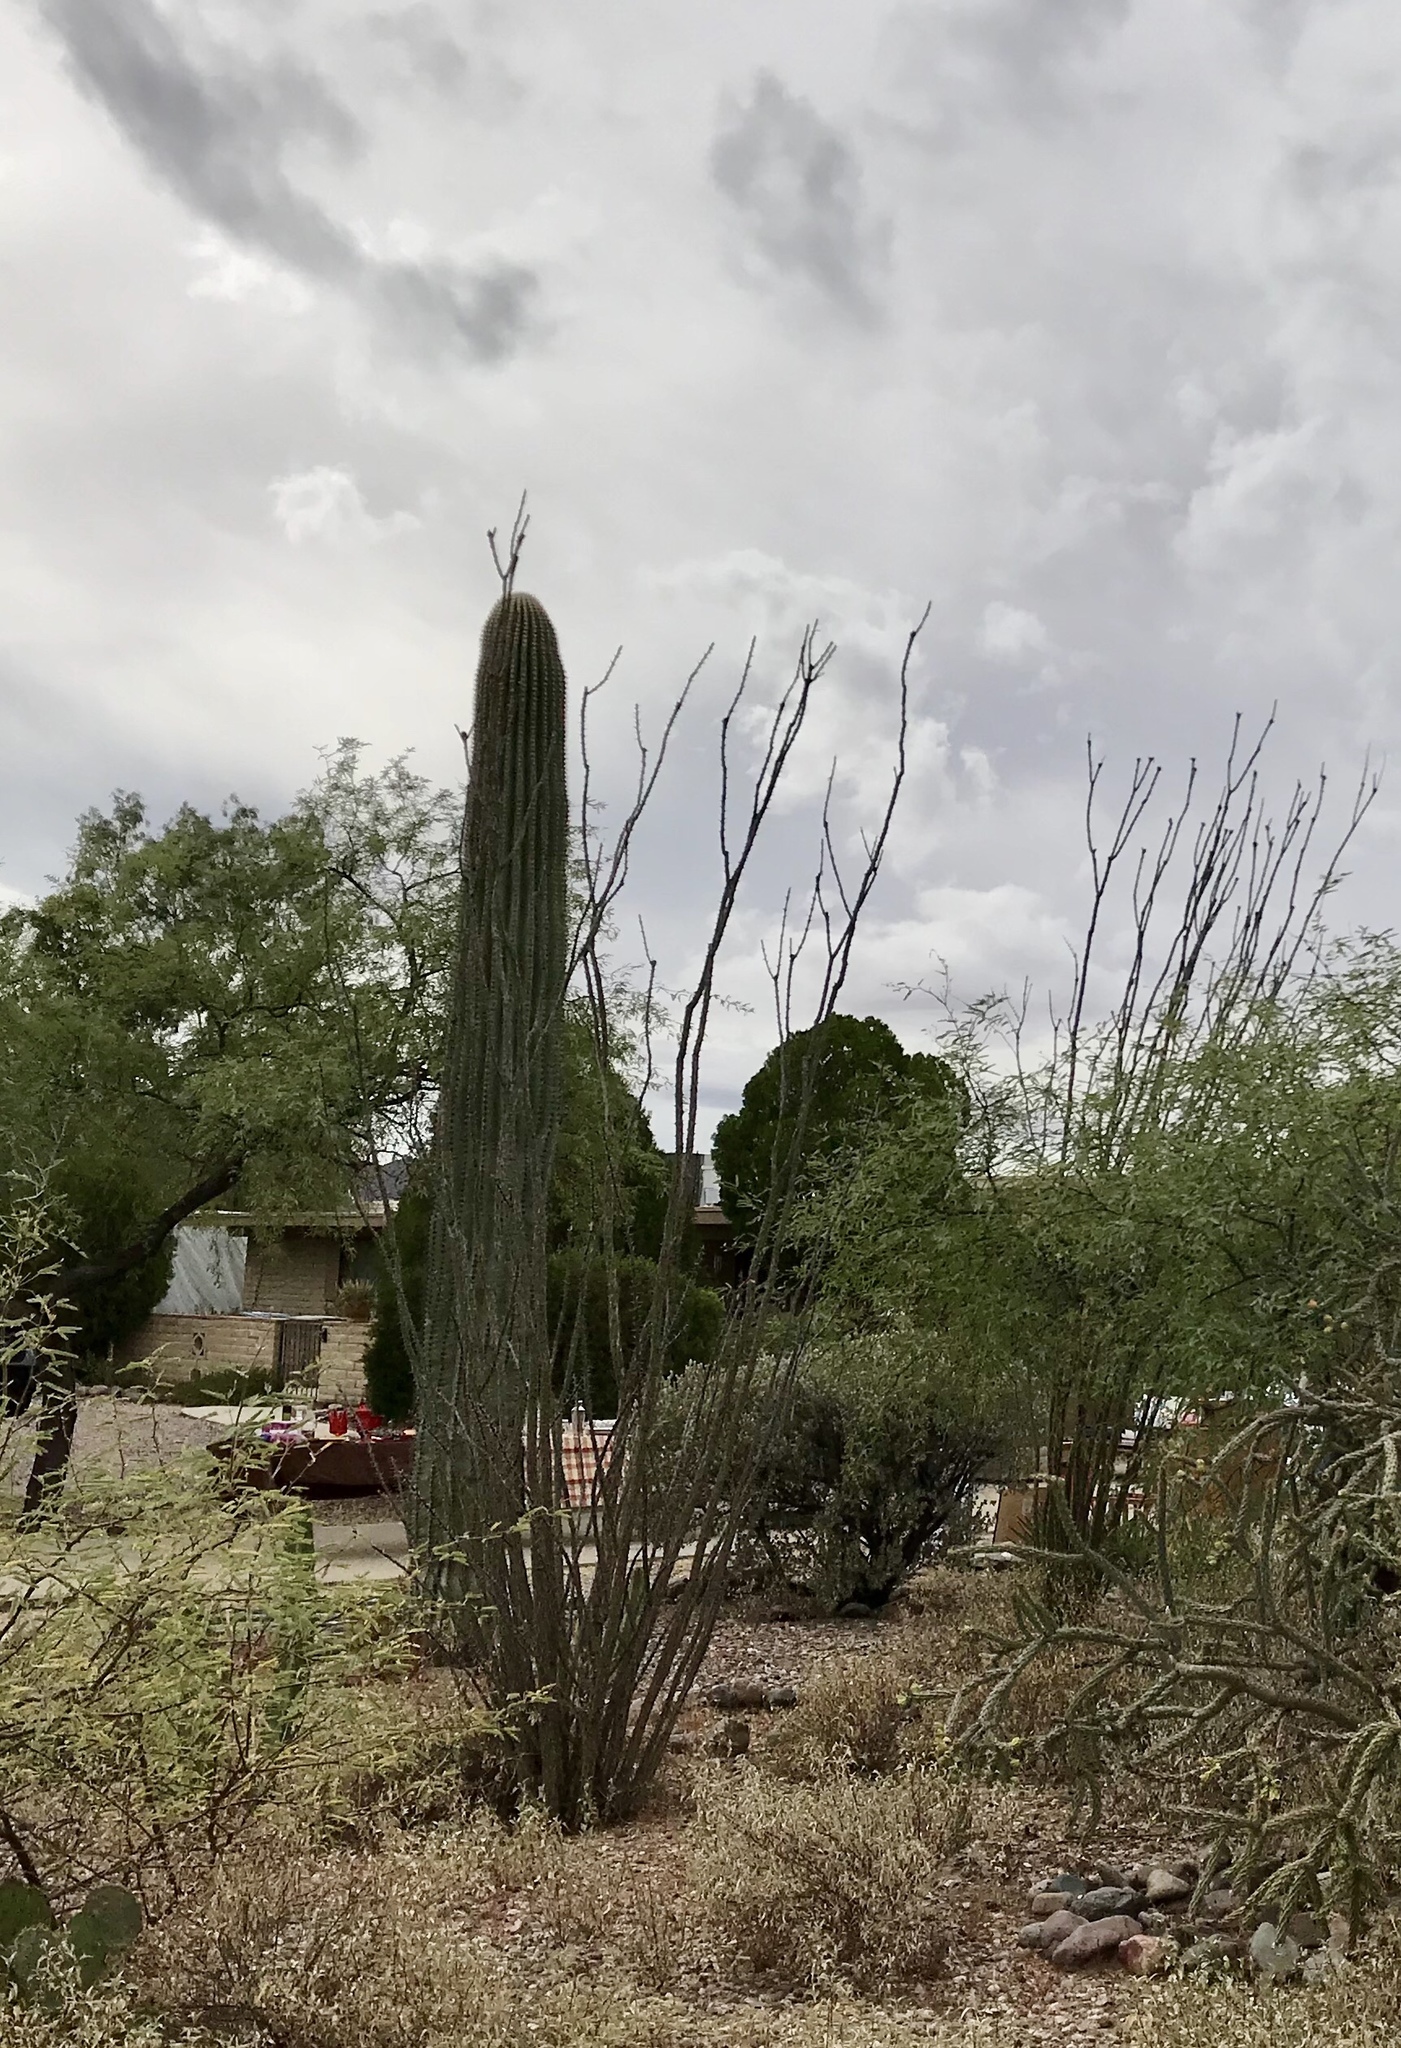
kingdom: Plantae
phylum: Tracheophyta
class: Magnoliopsida
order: Ericales
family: Fouquieriaceae
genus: Fouquieria
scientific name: Fouquieria splendens
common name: Vine-cactus
